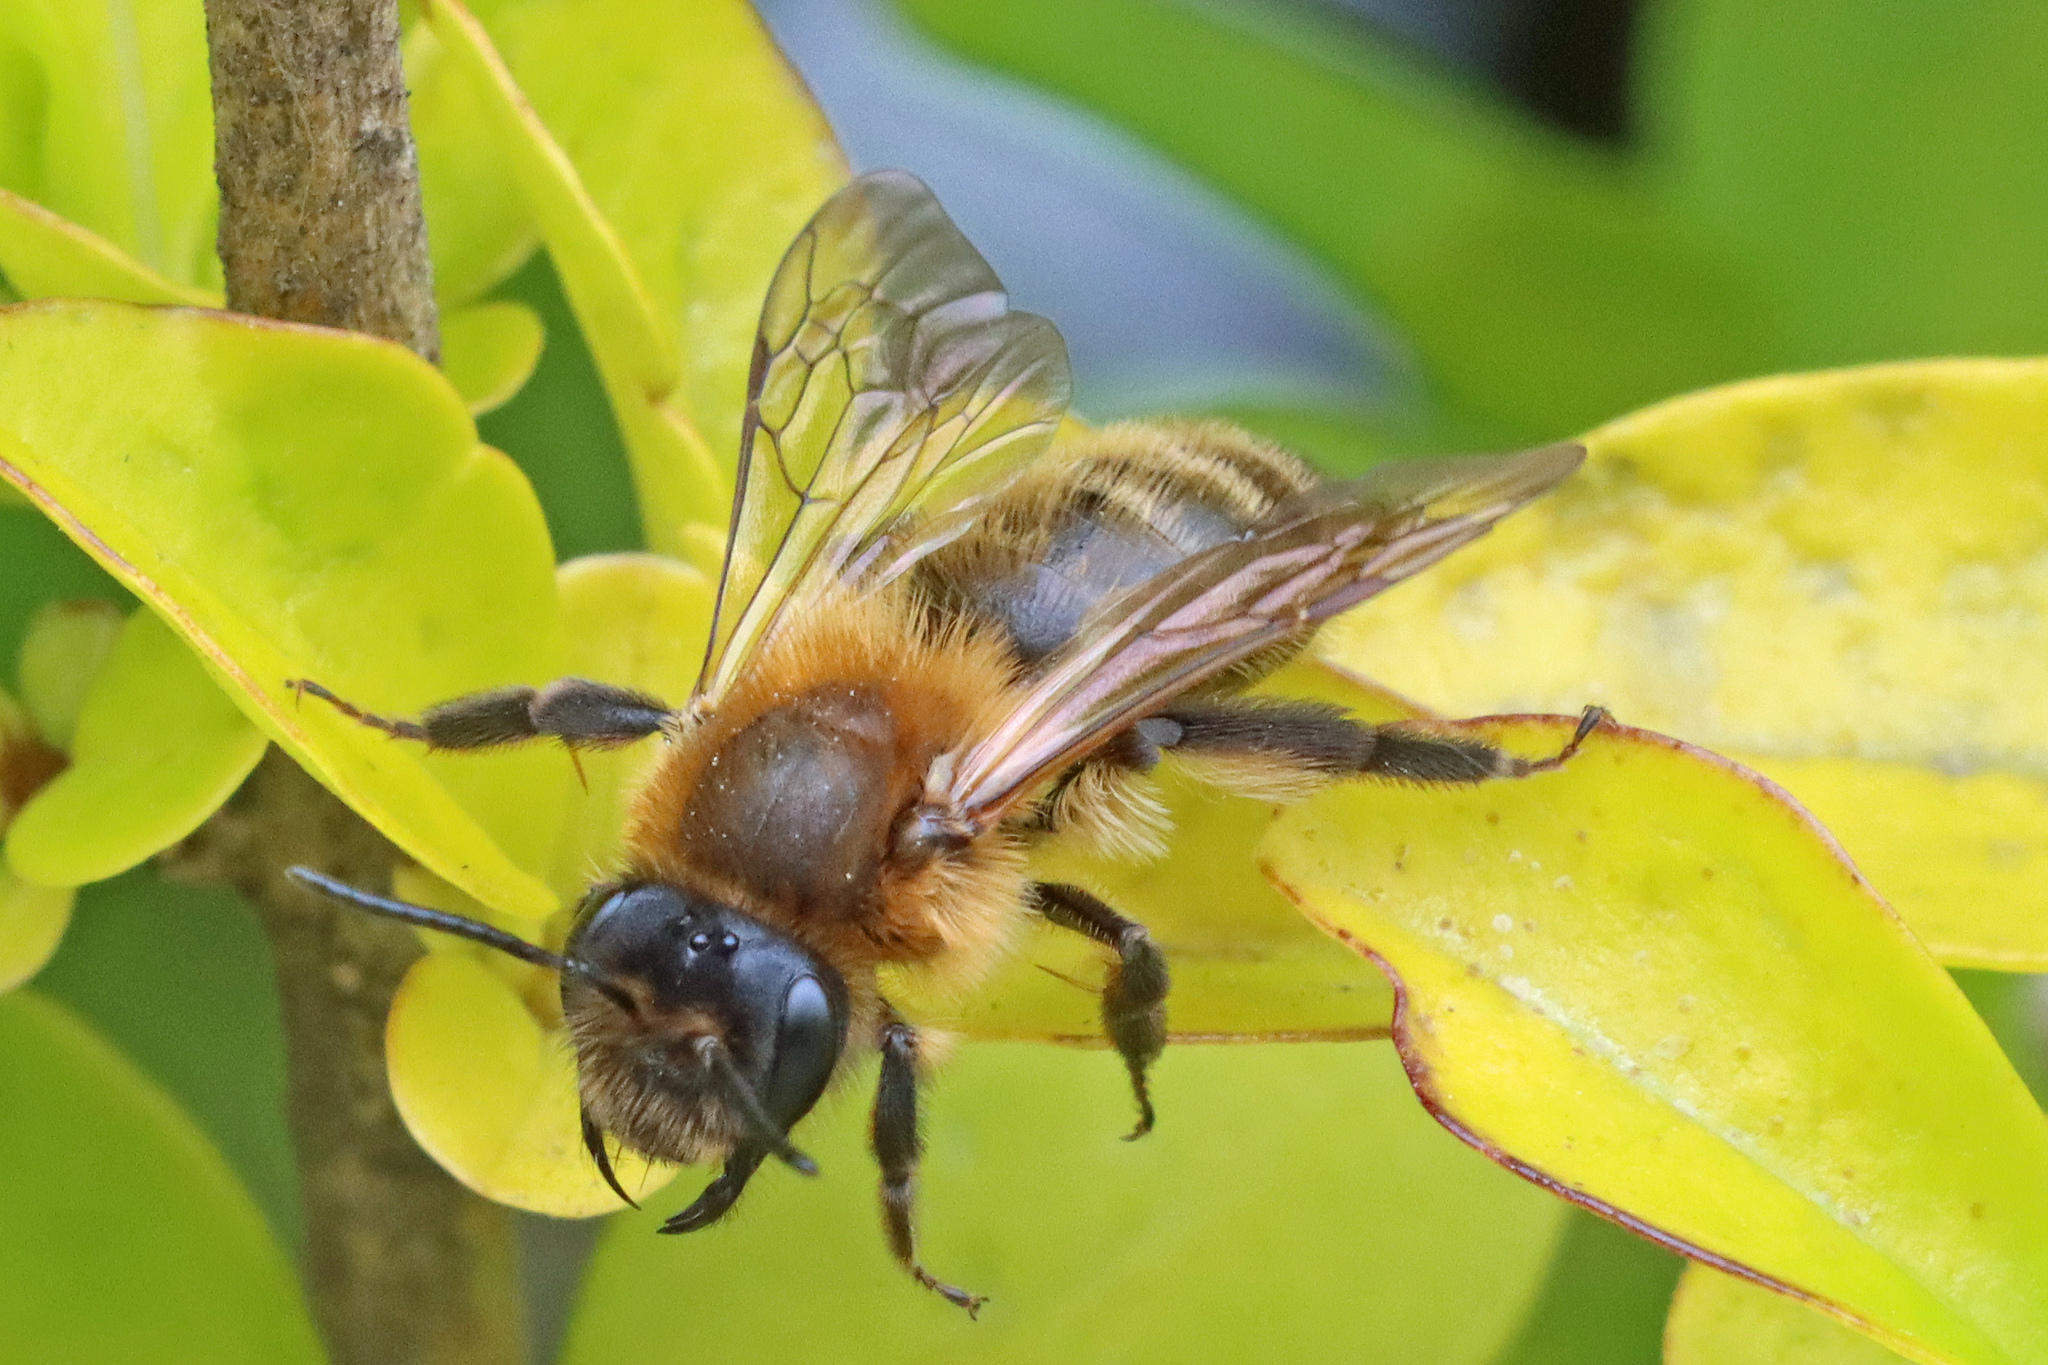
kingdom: Animalia
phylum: Arthropoda
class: Insecta
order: Hymenoptera
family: Andrenidae
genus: Andrena
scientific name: Andrena carantonica
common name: Chocolate mining bee
